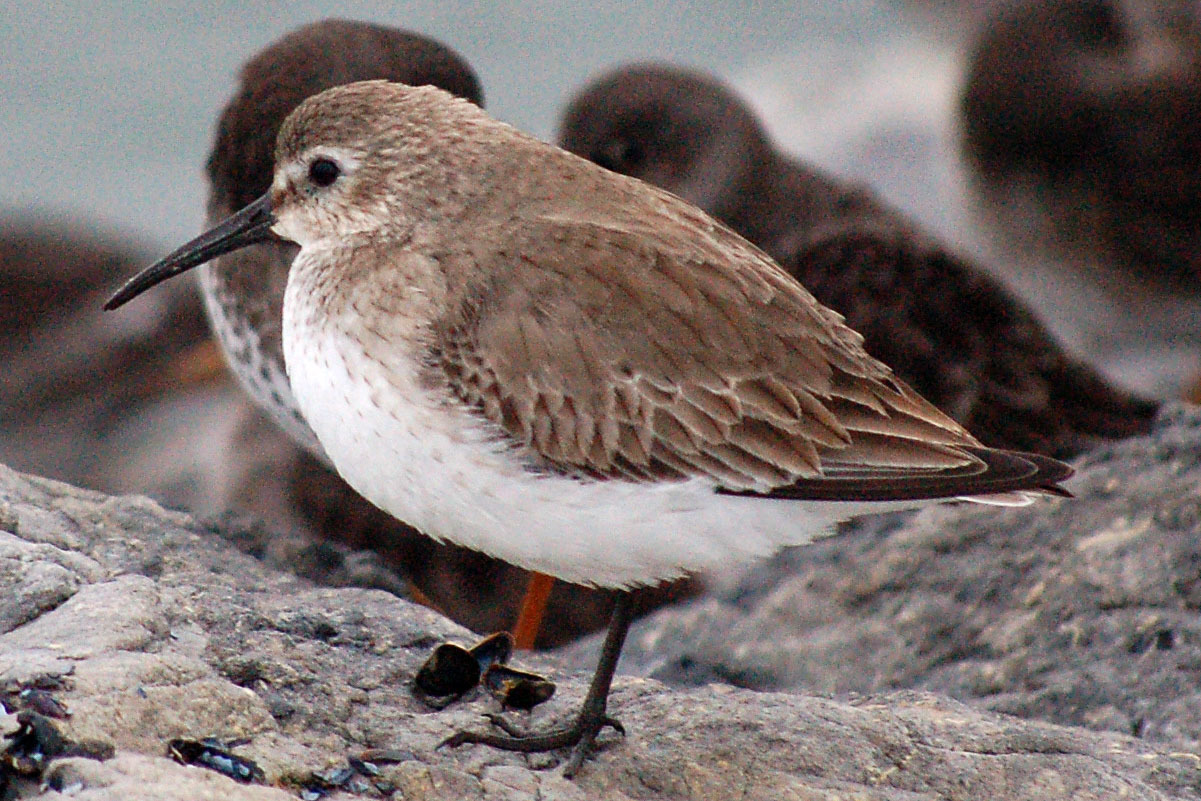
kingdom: Animalia
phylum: Chordata
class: Aves
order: Charadriiformes
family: Scolopacidae
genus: Calidris
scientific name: Calidris alpina
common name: Dunlin
